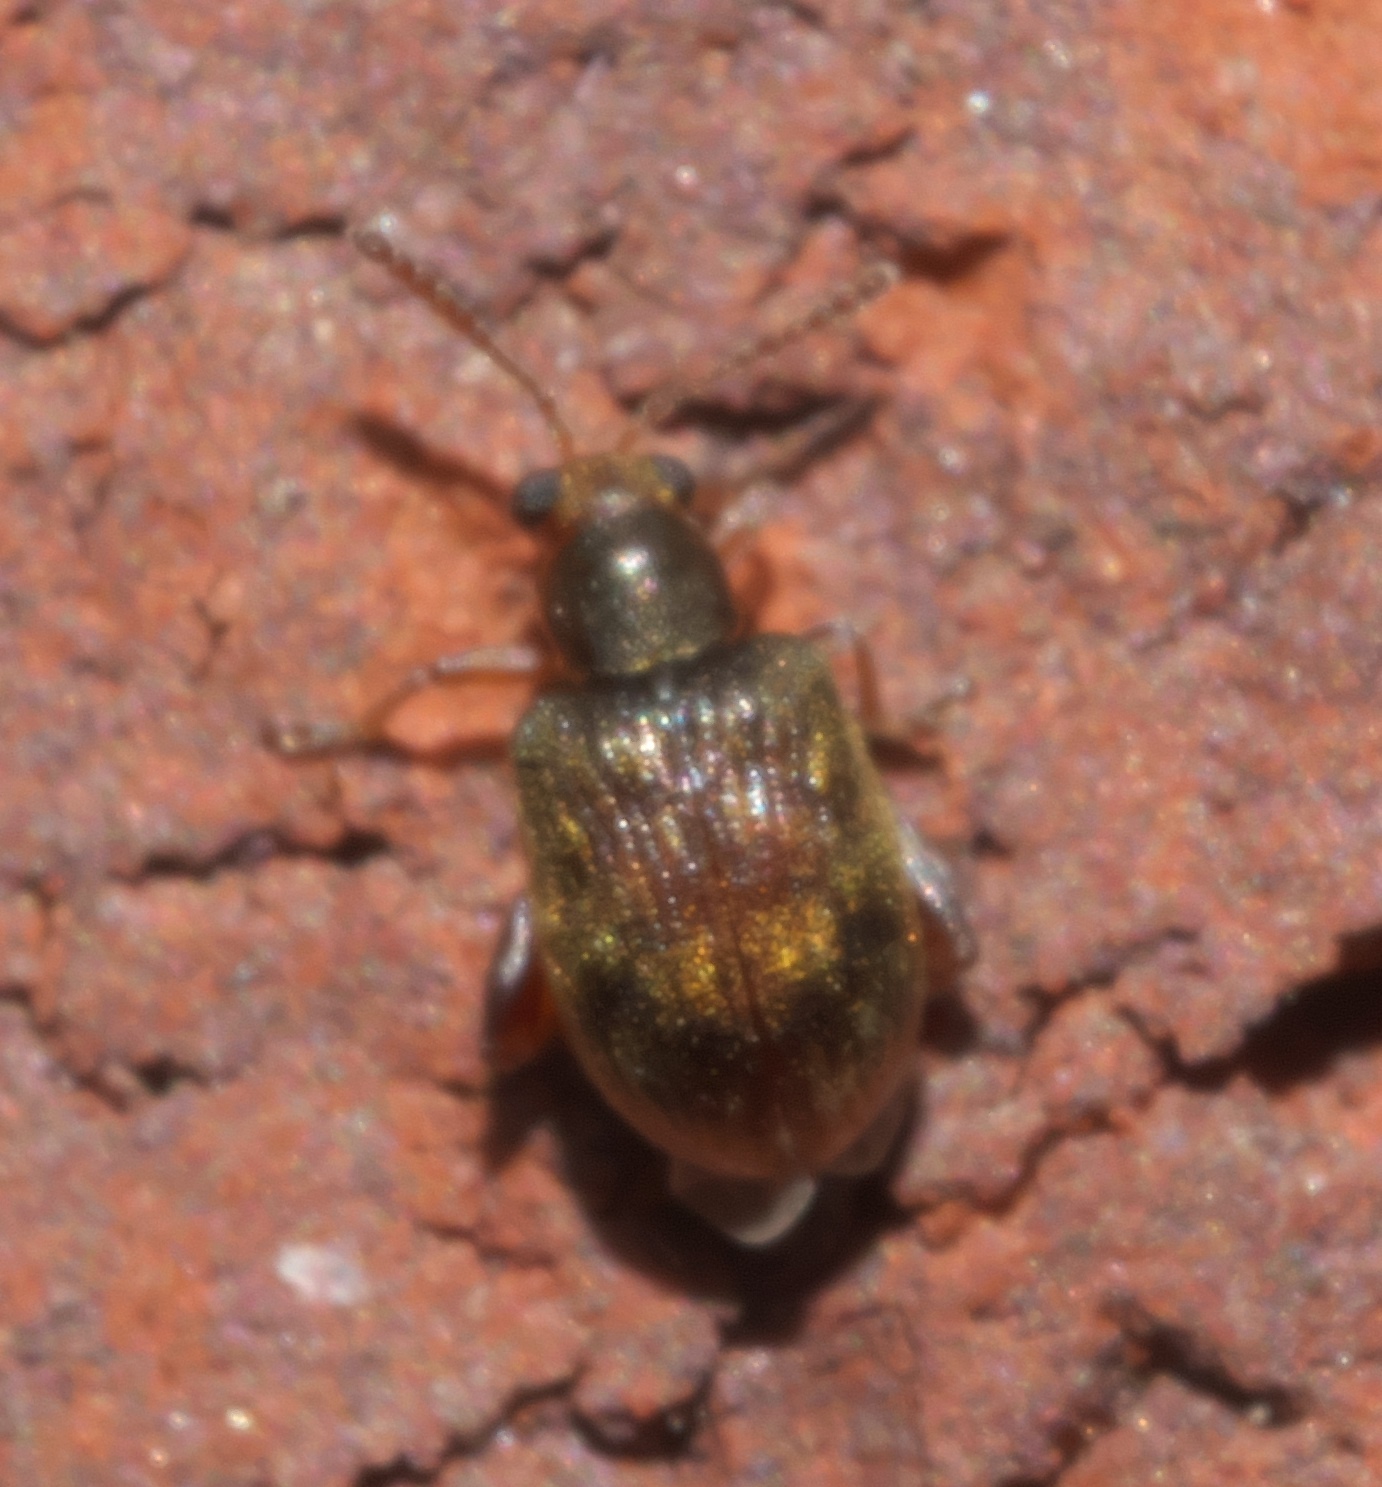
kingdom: Animalia
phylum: Arthropoda
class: Insecta
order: Coleoptera
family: Chrysomelidae
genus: Pseudolampis
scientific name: Pseudolampis guttata
